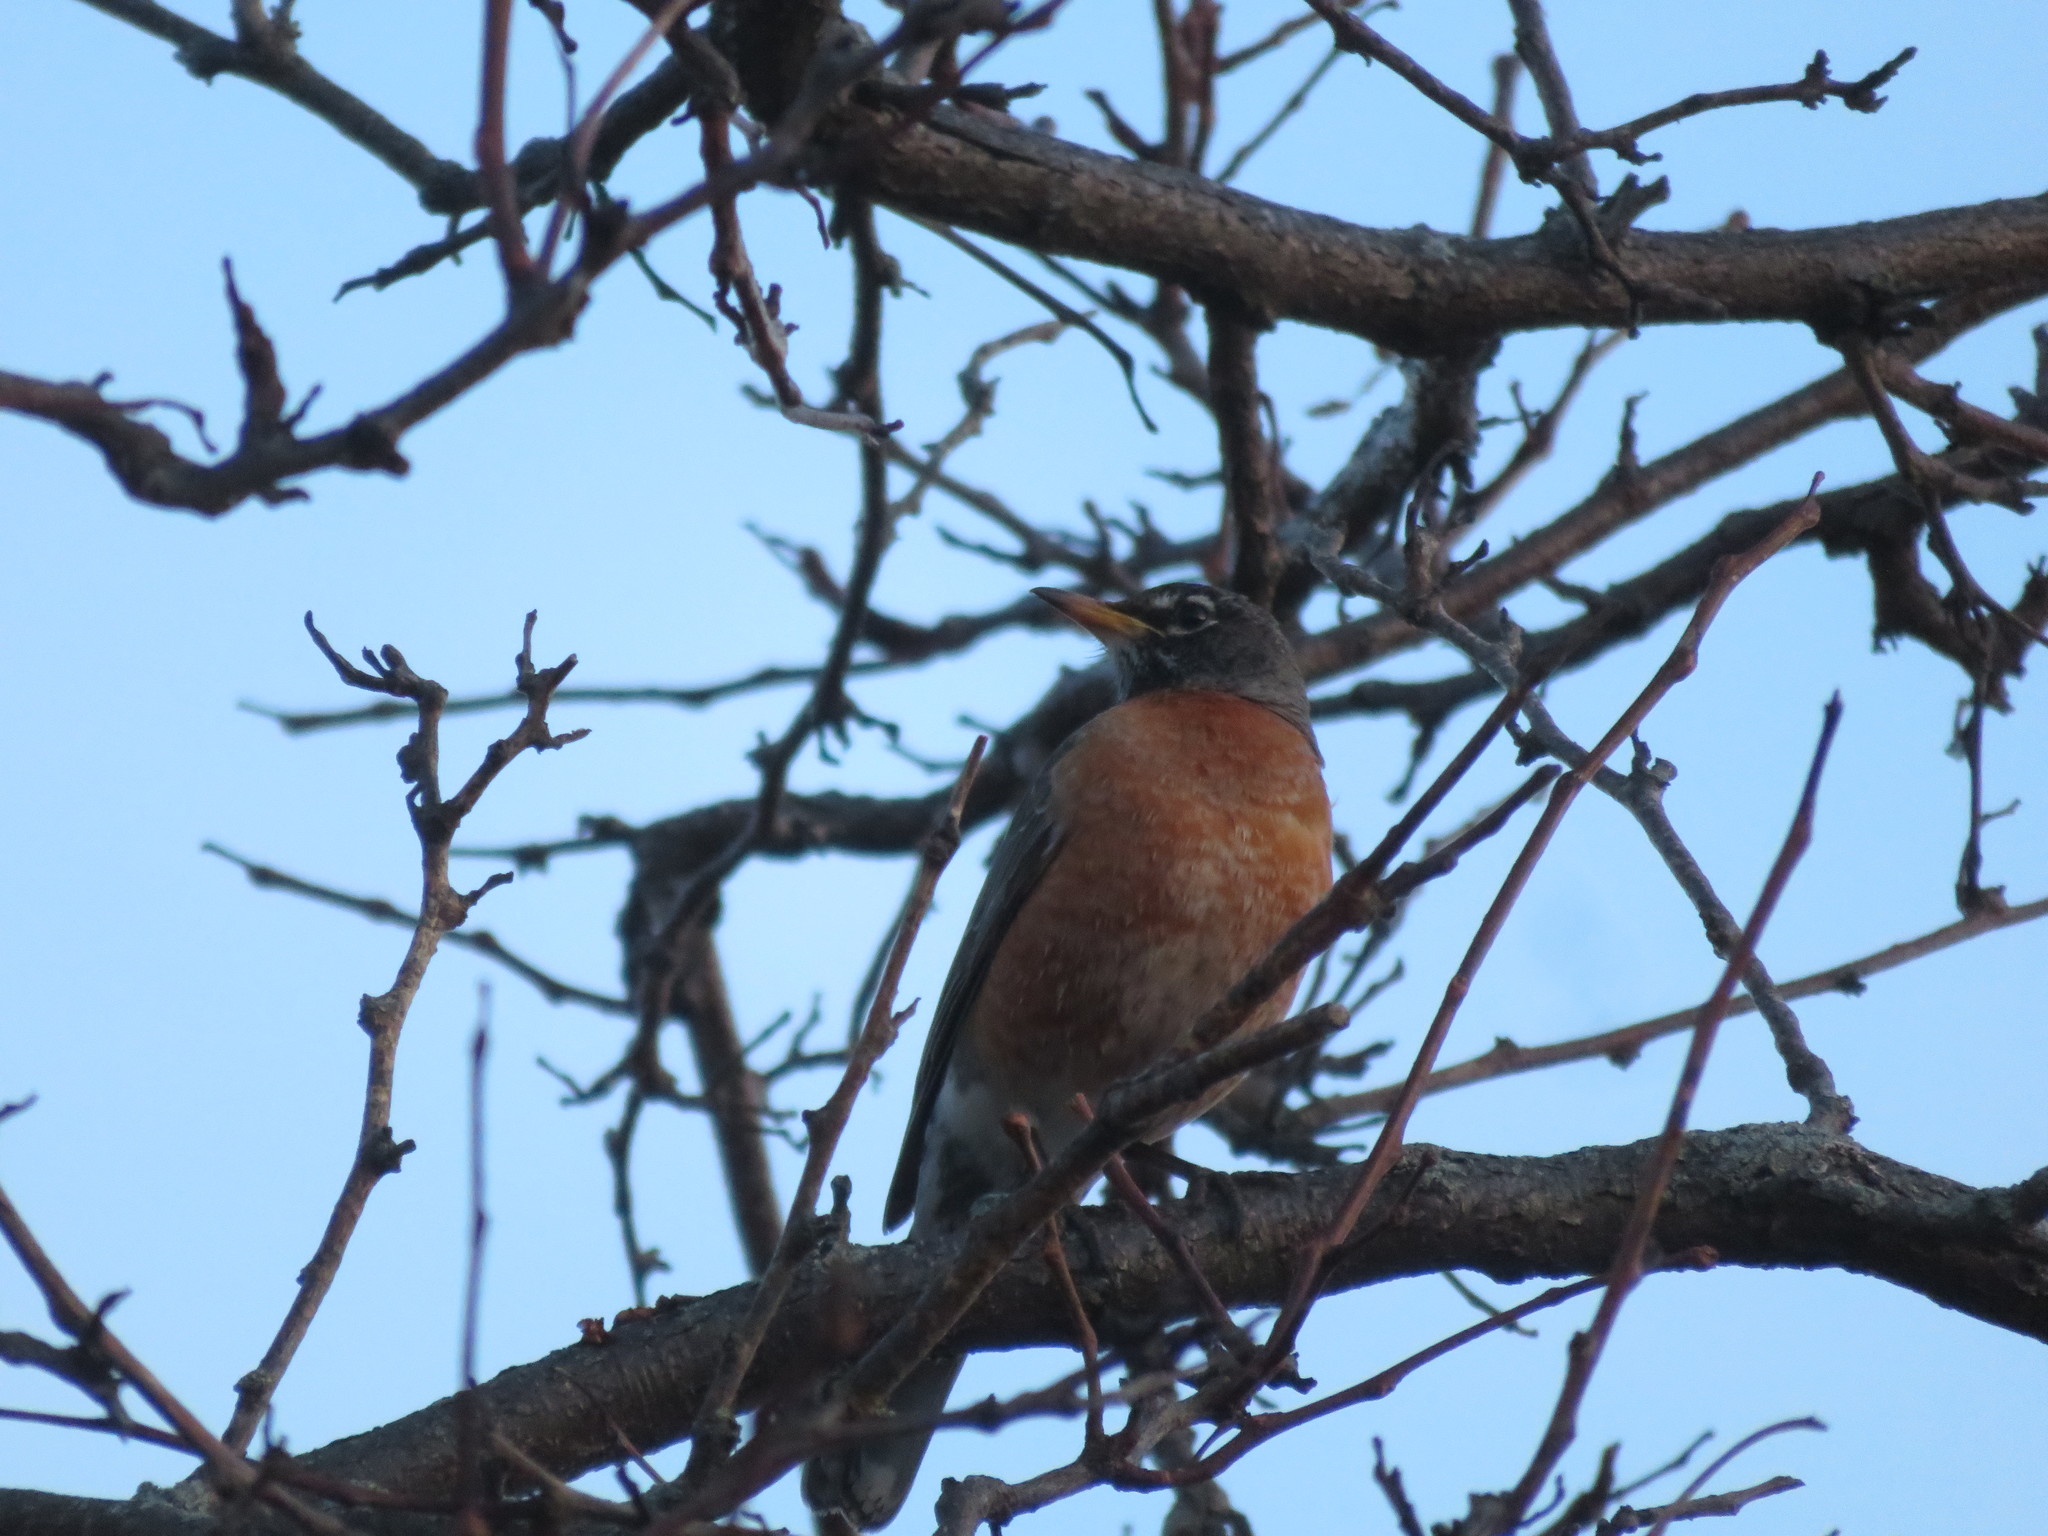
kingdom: Animalia
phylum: Chordata
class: Aves
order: Passeriformes
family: Turdidae
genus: Turdus
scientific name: Turdus migratorius
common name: American robin
